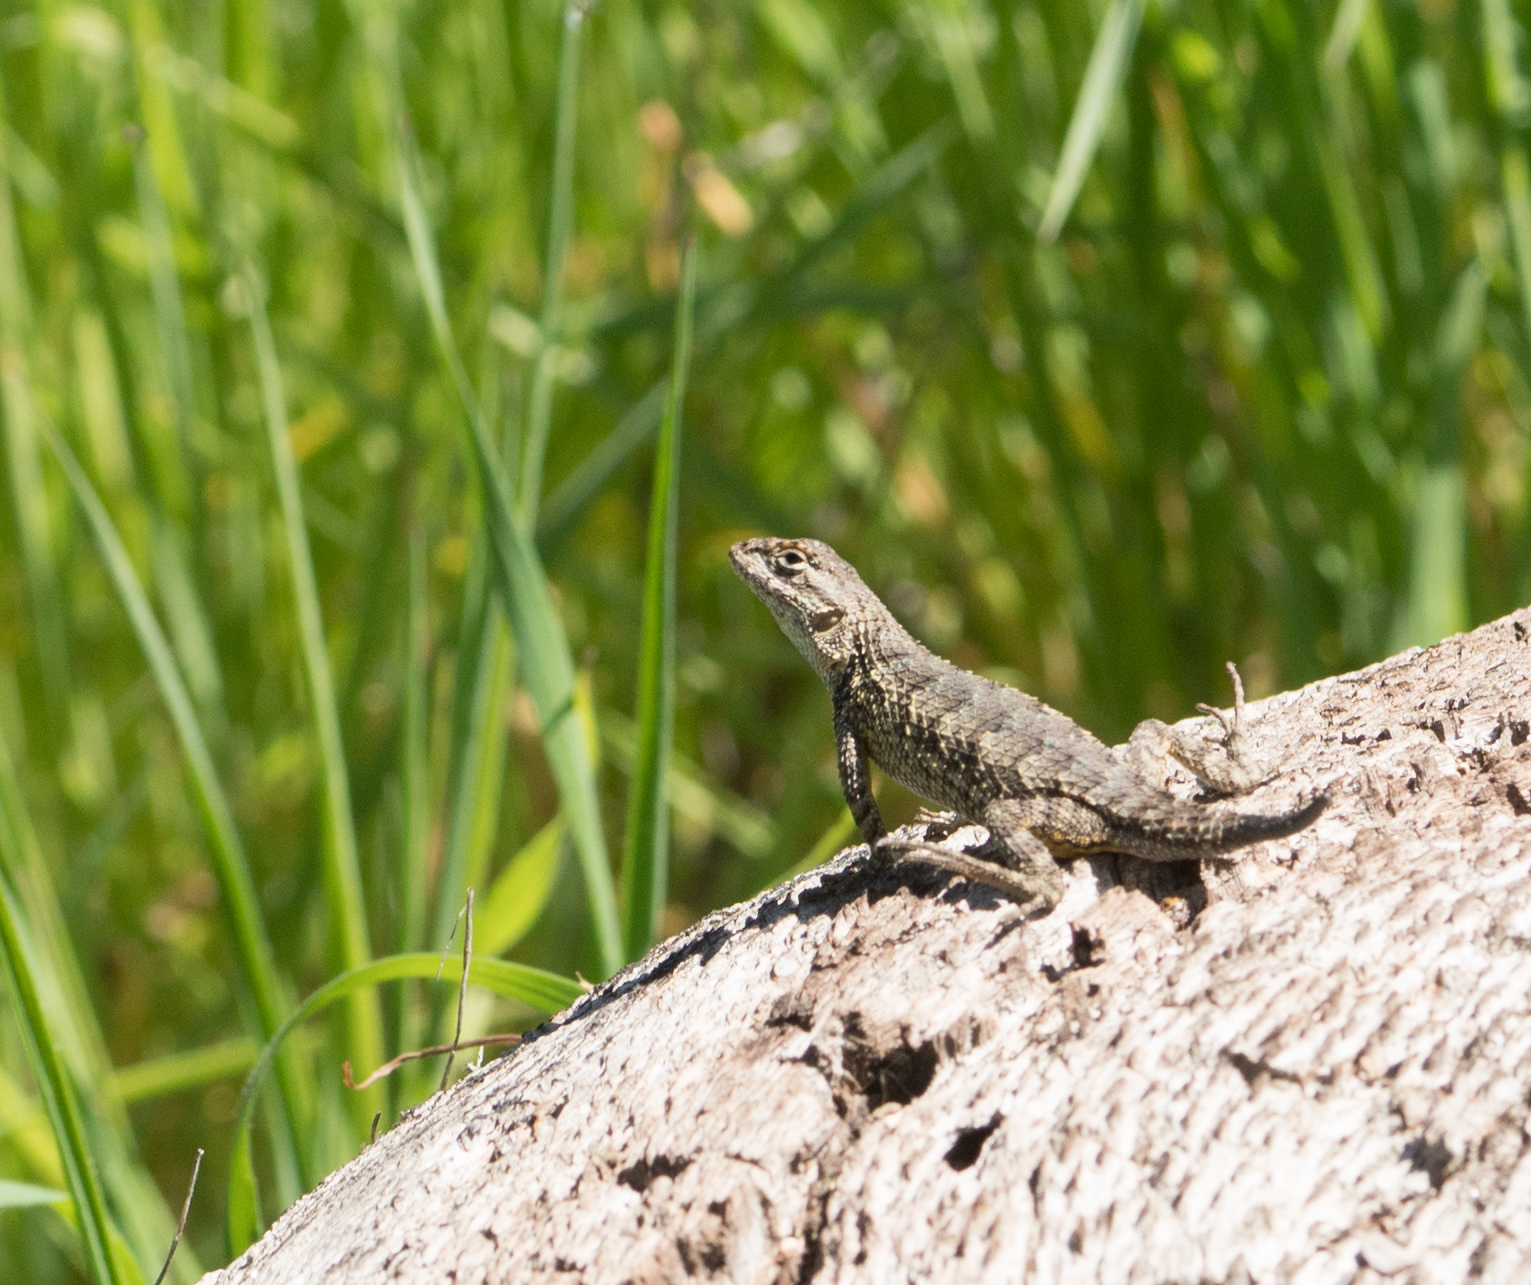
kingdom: Animalia
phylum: Chordata
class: Squamata
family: Phrynosomatidae
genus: Sceloporus
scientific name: Sceloporus occidentalis
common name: Western fence lizard
